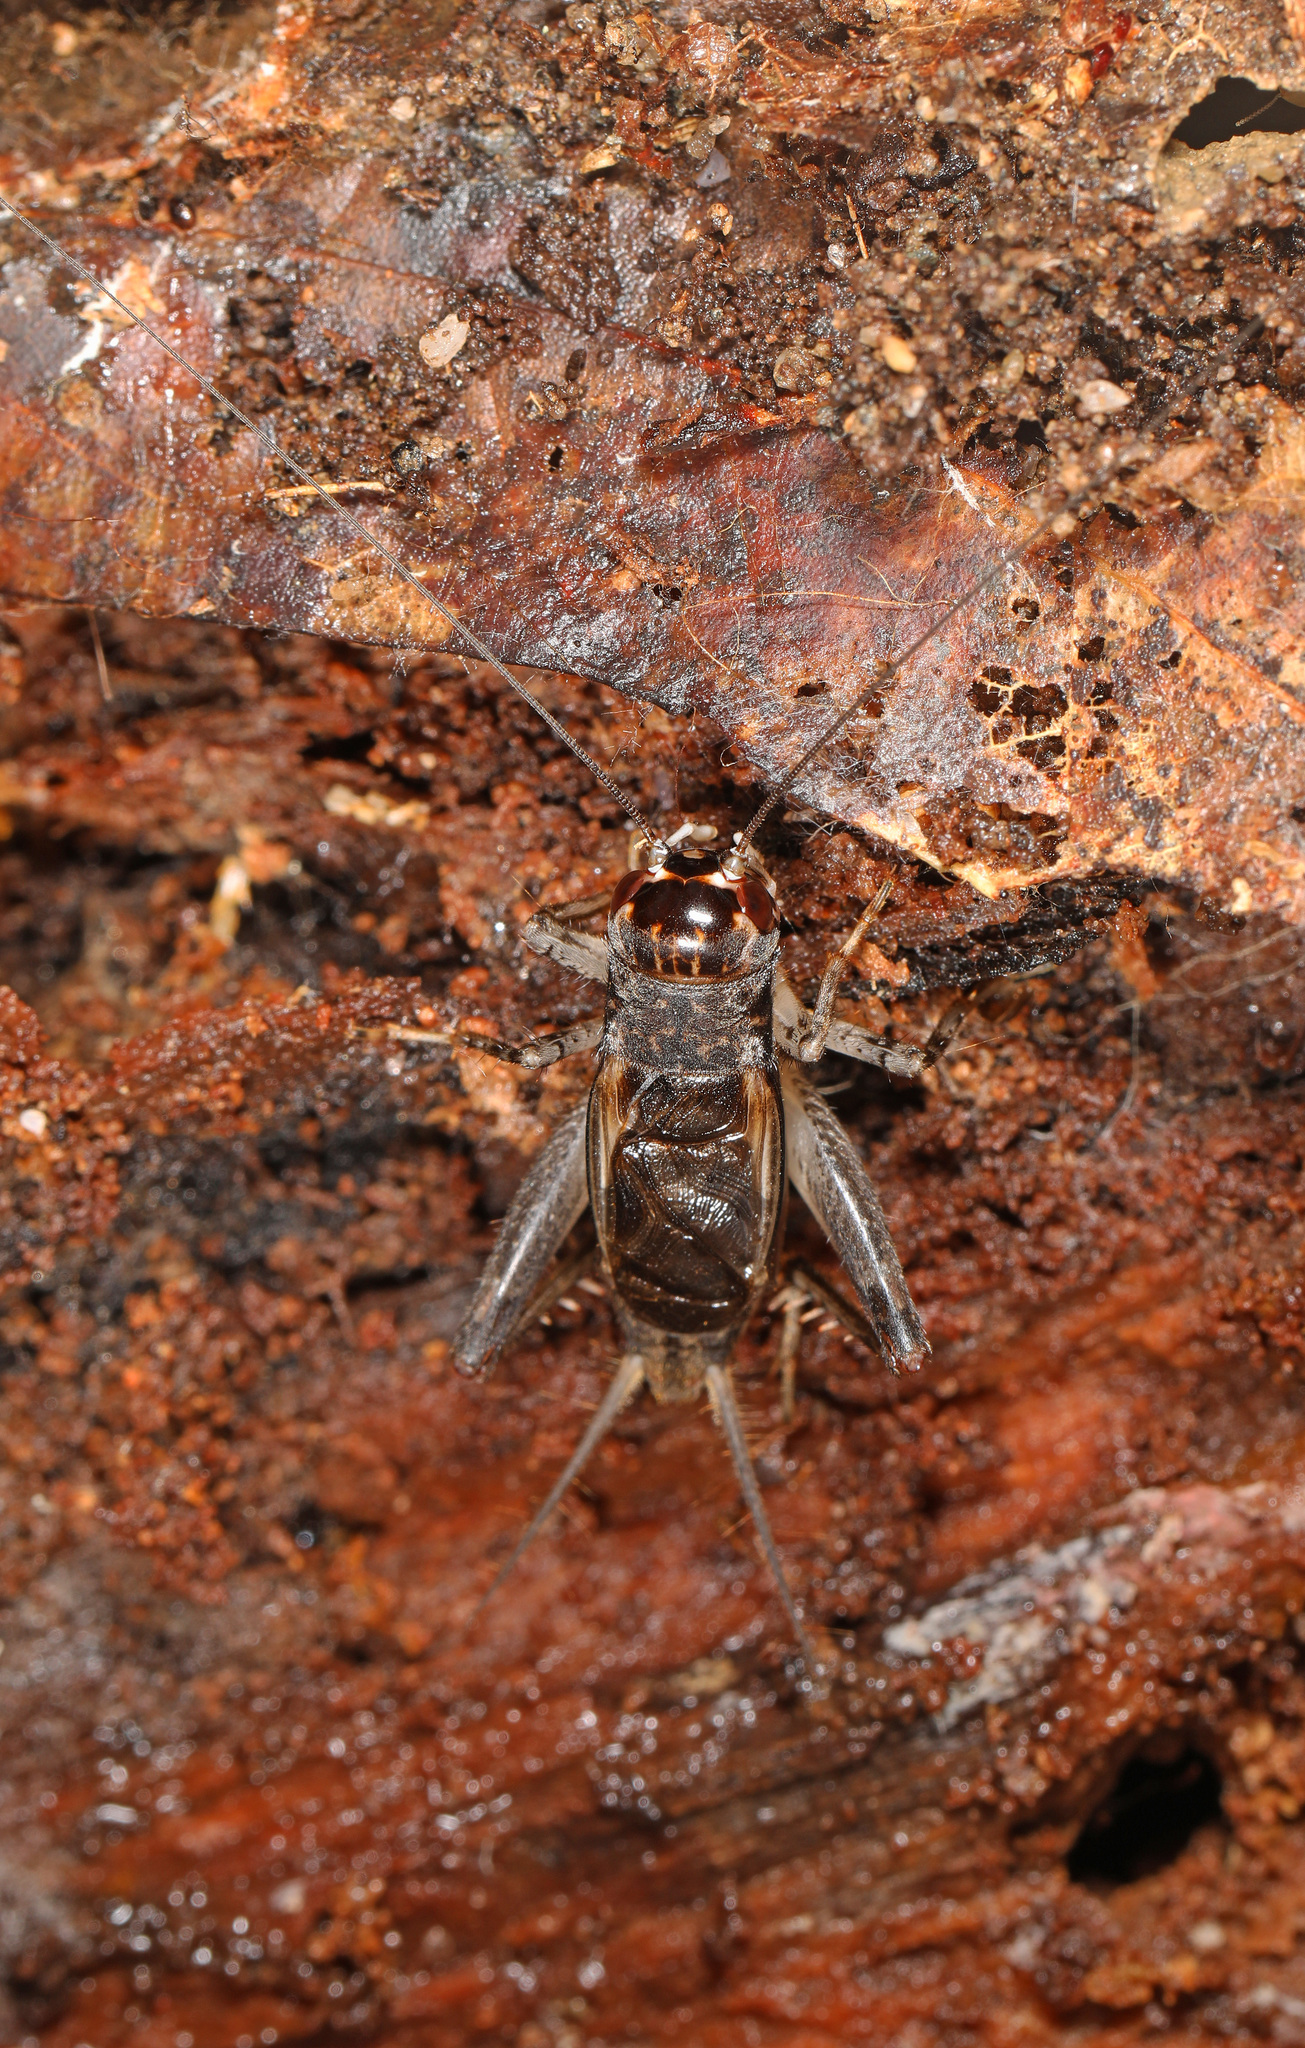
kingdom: Animalia
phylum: Arthropoda
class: Insecta
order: Orthoptera
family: Gryllidae
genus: Velarifictorus
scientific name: Velarifictorus micado
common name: Japanese burrowing cricket
